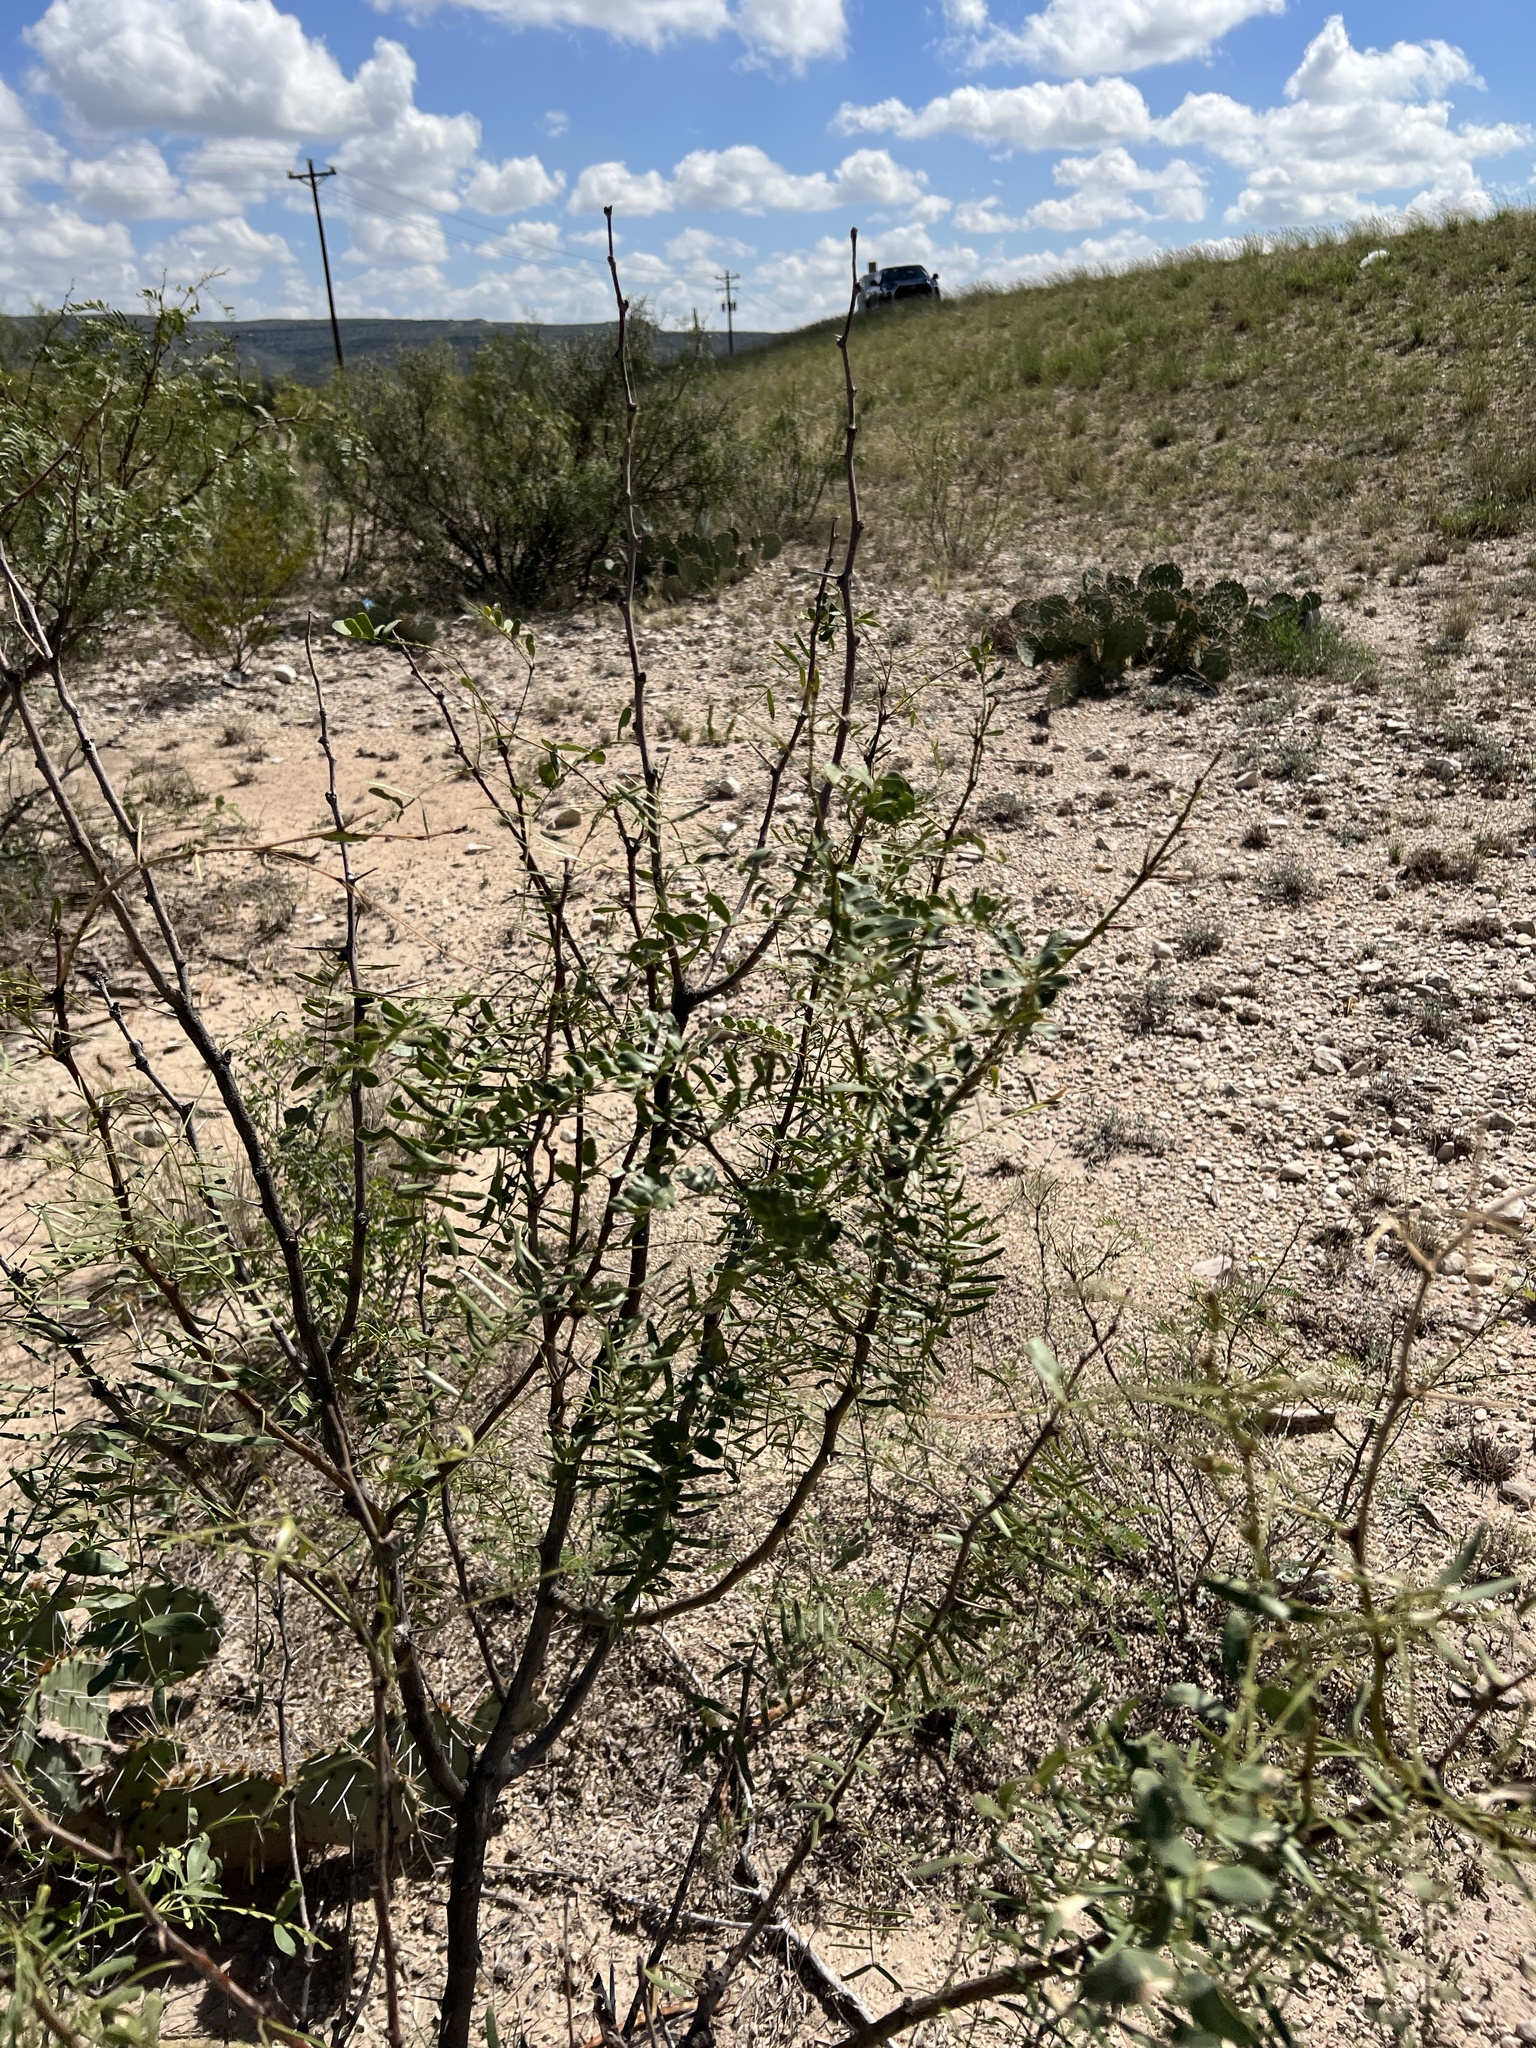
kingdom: Plantae
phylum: Tracheophyta
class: Magnoliopsida
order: Fabales
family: Fabaceae
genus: Prosopis
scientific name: Prosopis glandulosa
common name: Honey mesquite
